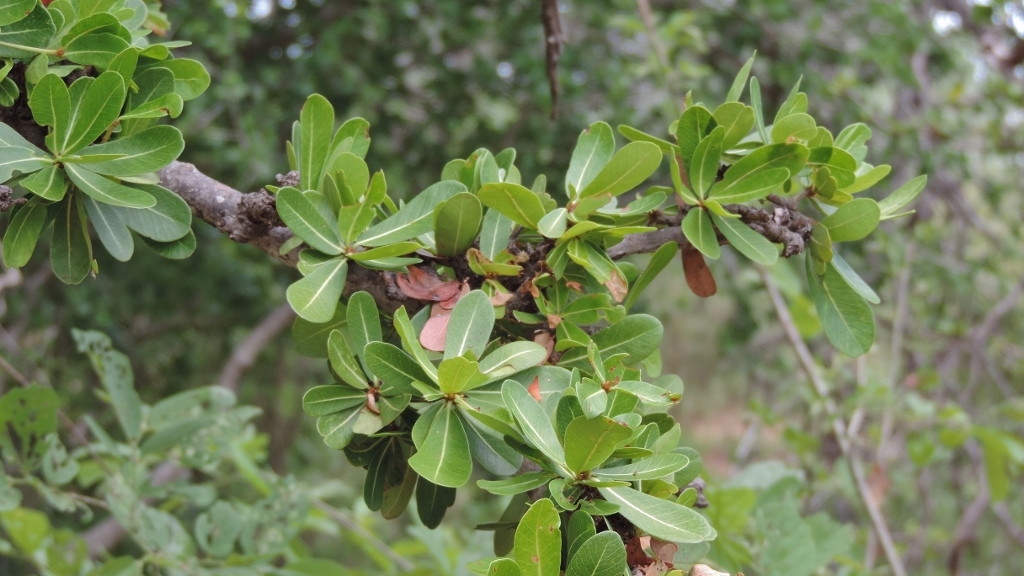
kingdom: Plantae
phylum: Tracheophyta
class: Magnoliopsida
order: Ericales
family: Sapotaceae
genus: Manilkara
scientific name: Manilkara mochisia
